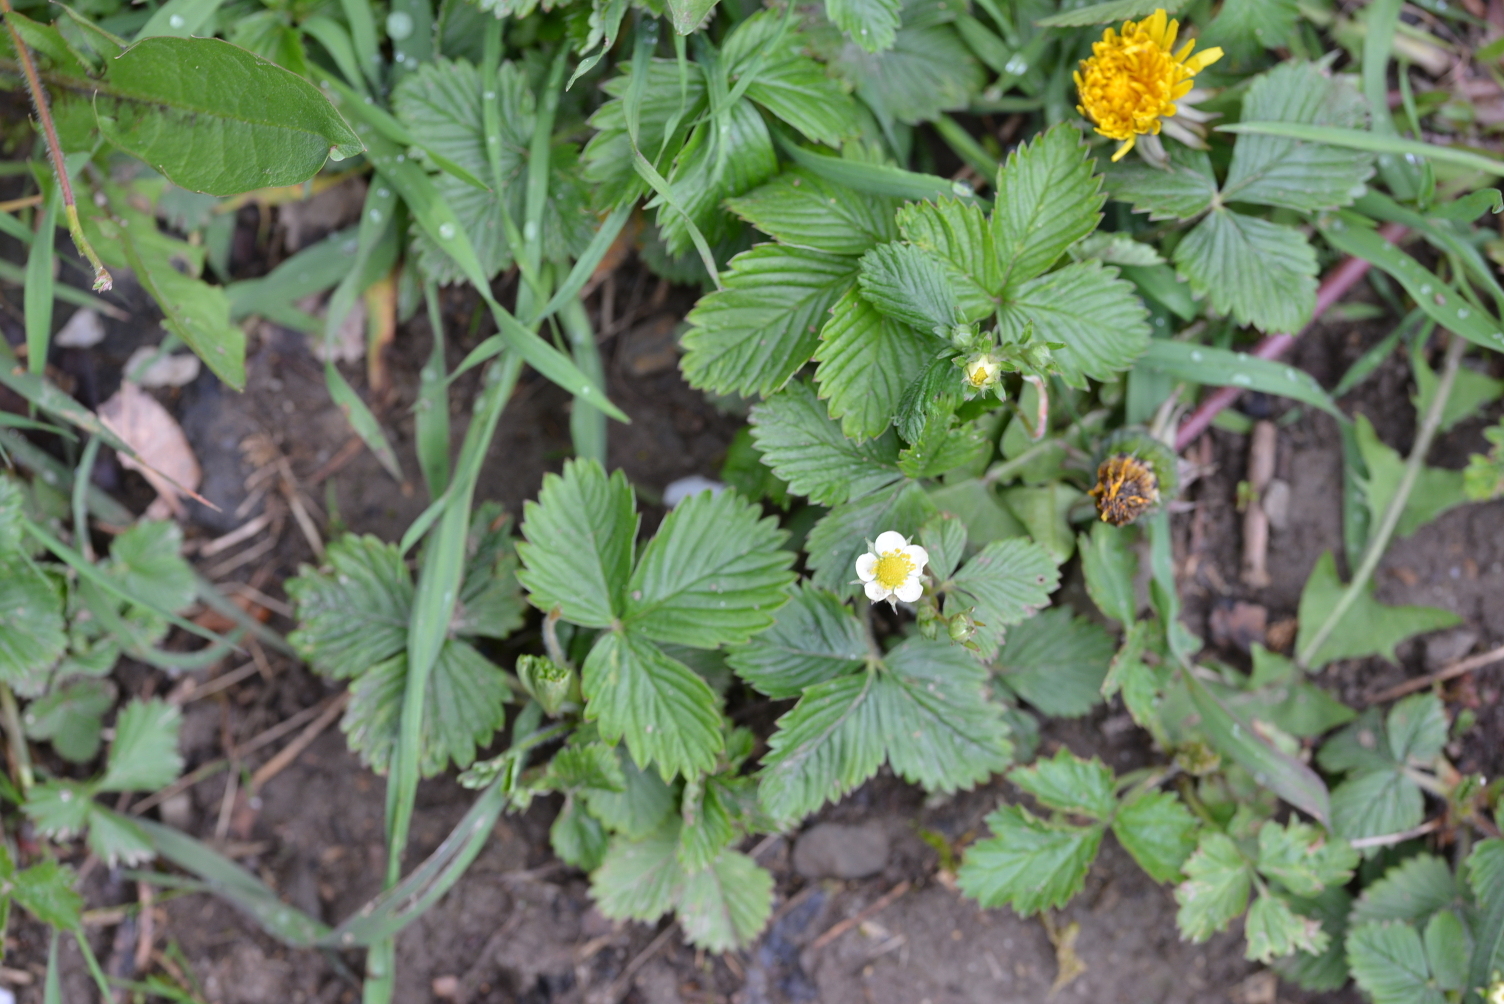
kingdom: Plantae
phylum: Tracheophyta
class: Magnoliopsida
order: Rosales
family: Rosaceae
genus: Fragaria
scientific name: Fragaria vesca
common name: Wild strawberry
